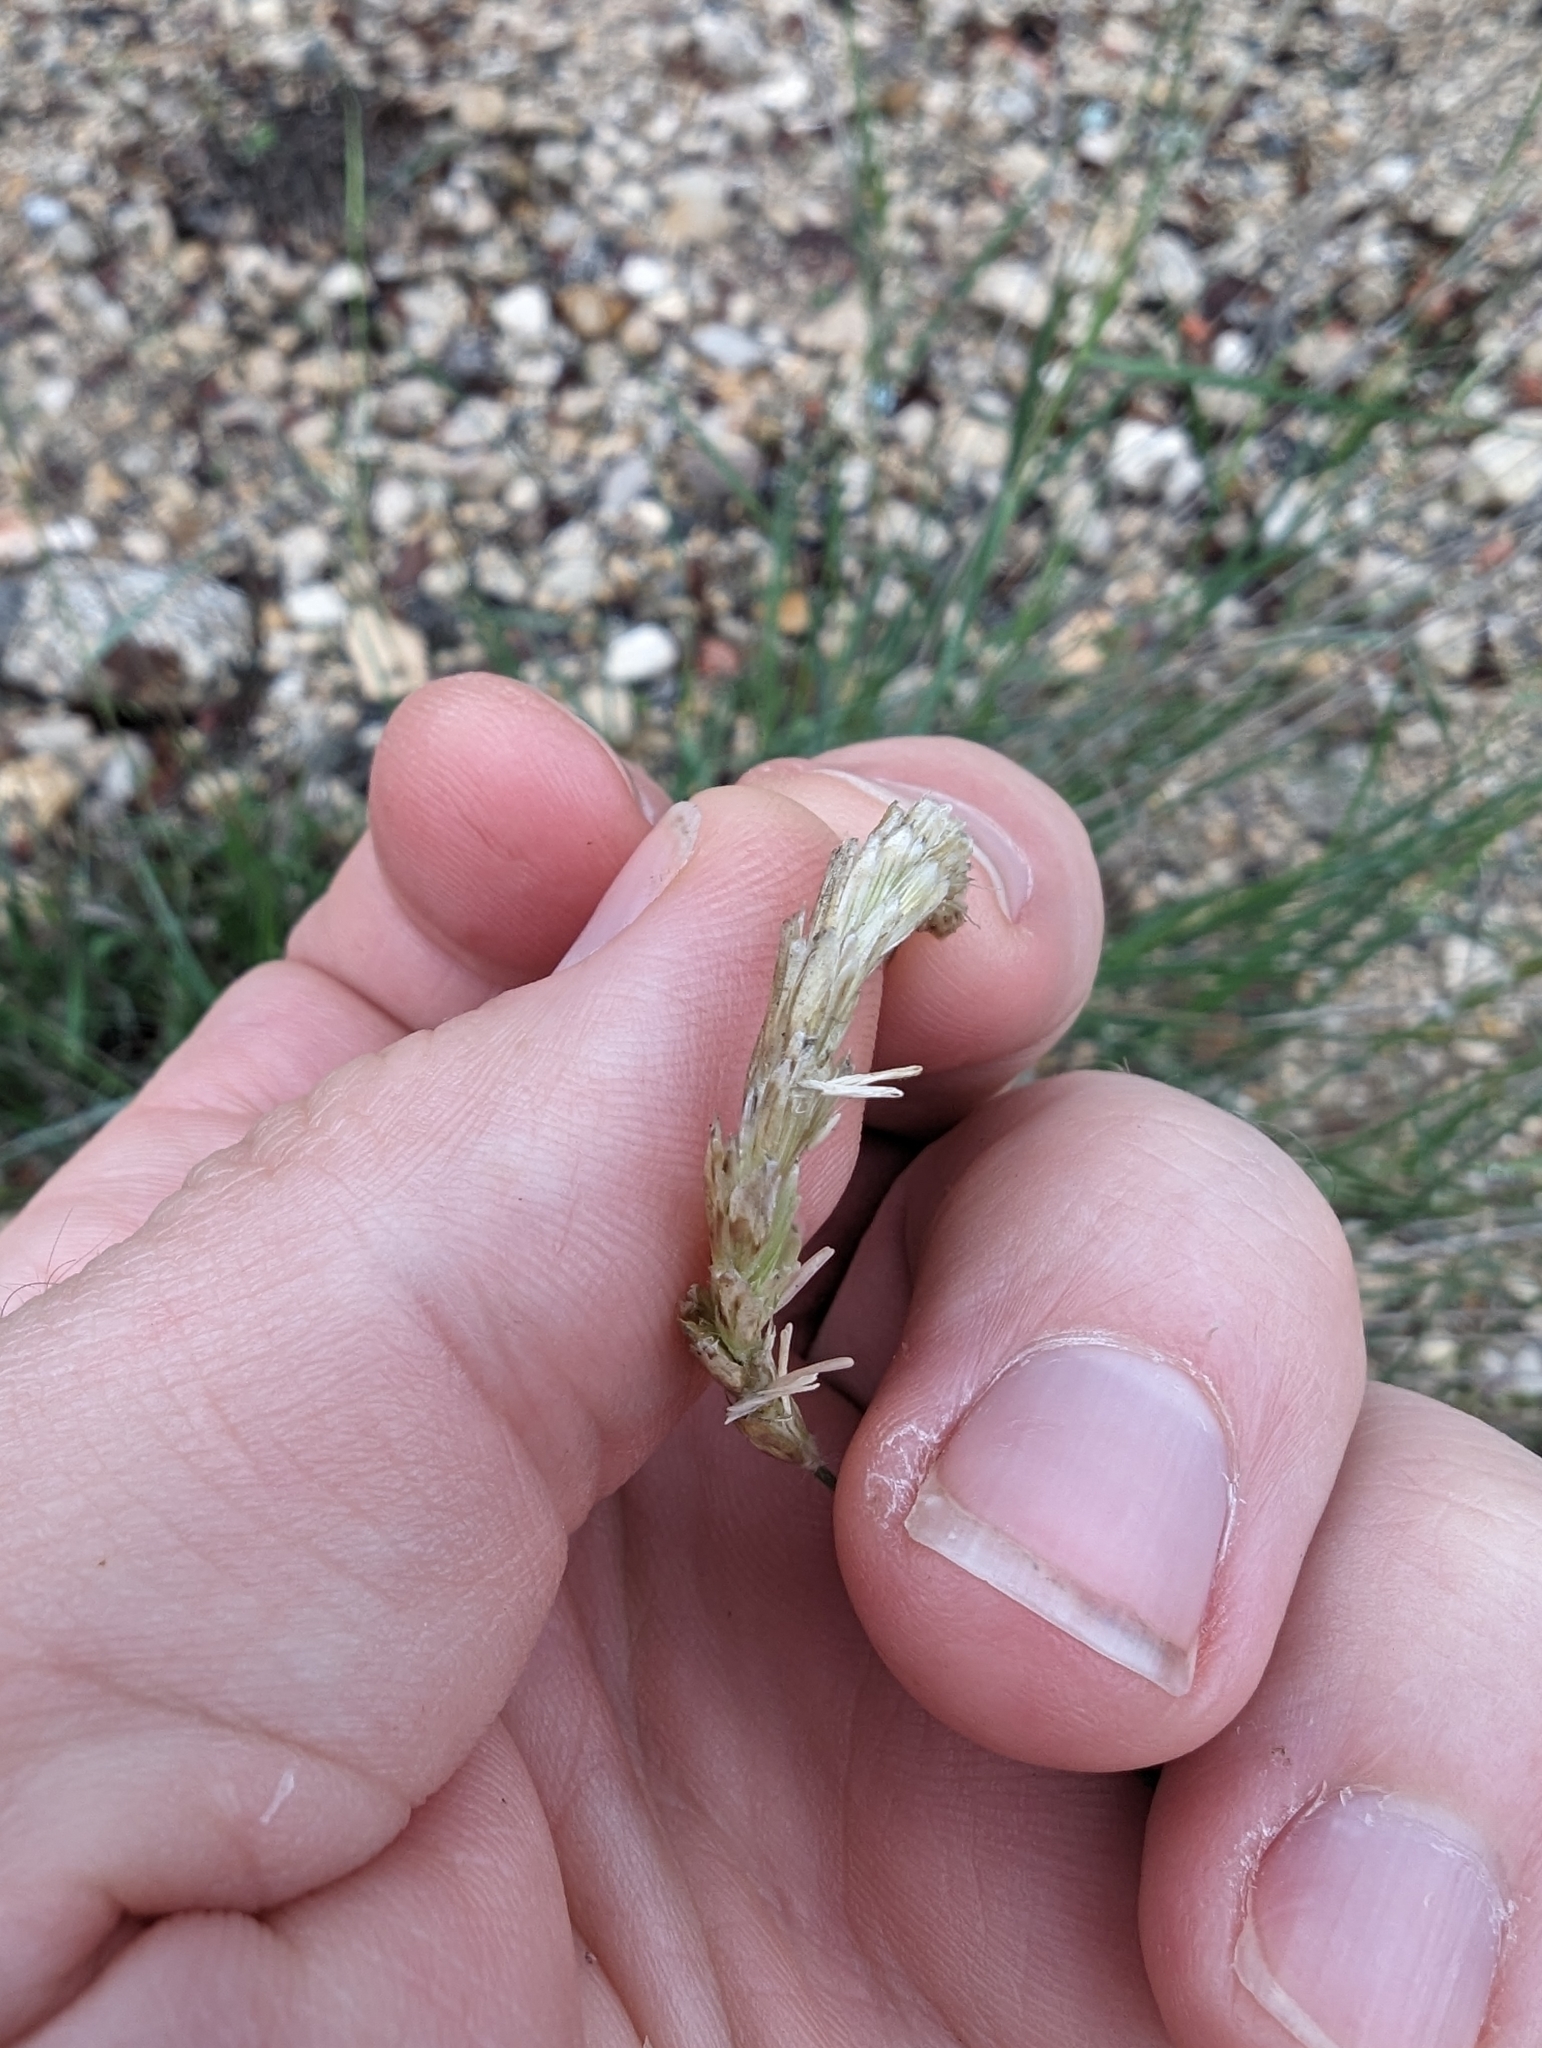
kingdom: Plantae
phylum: Tracheophyta
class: Liliopsida
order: Poales
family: Poaceae
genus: Hilaria
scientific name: Hilaria jamesii
